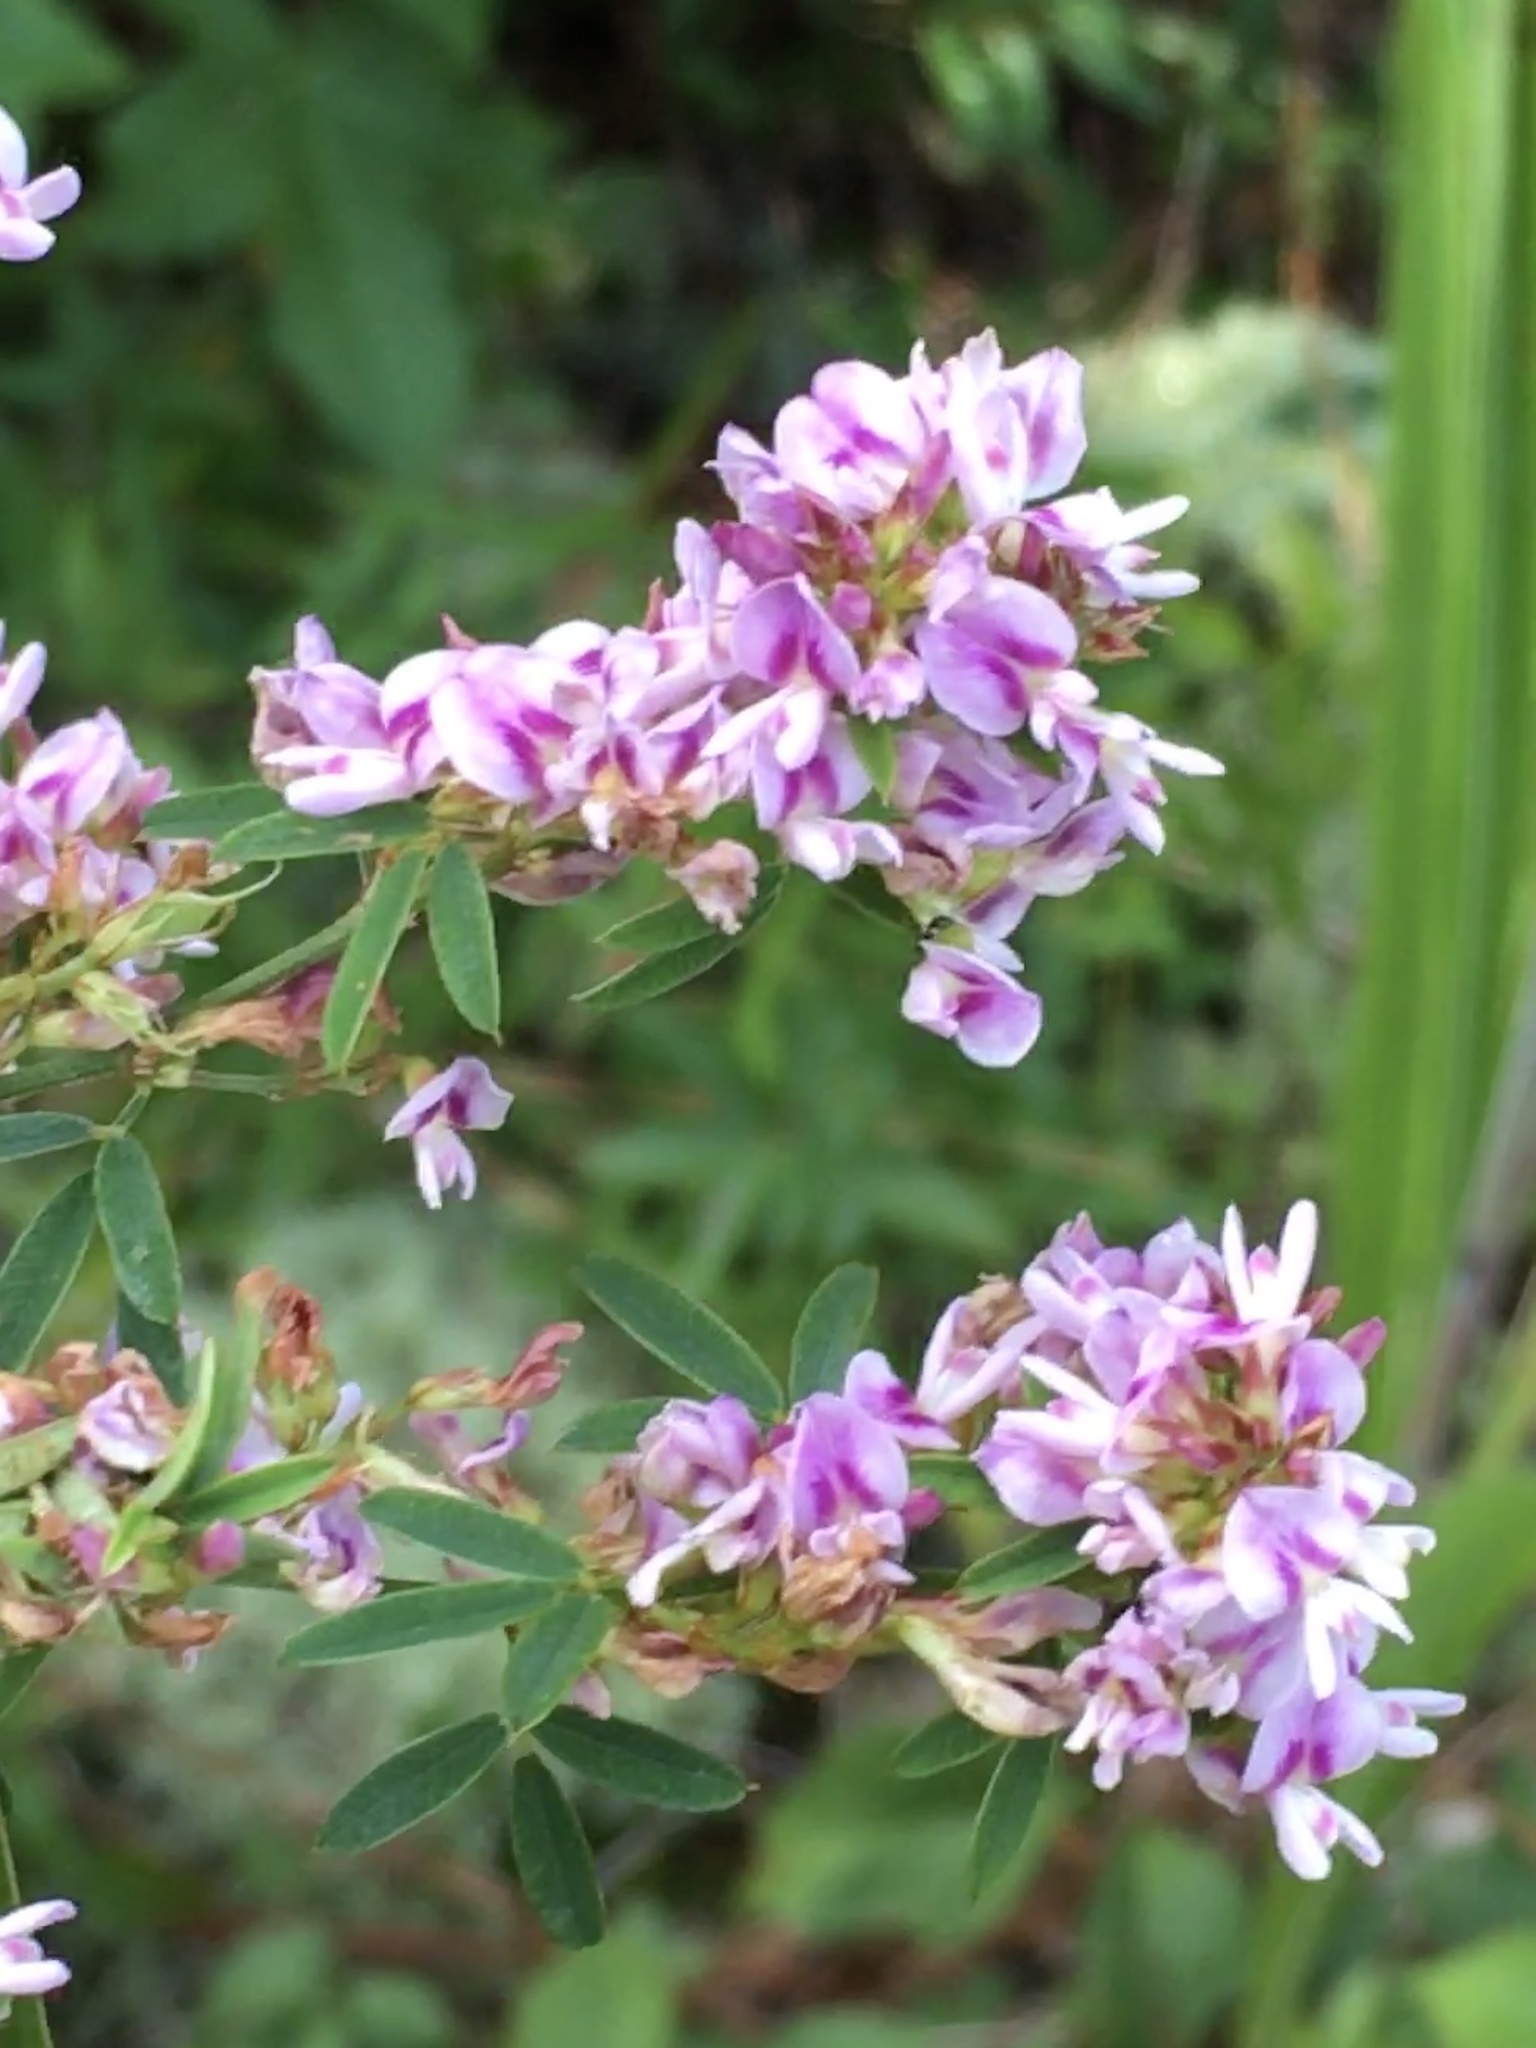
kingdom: Plantae
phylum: Tracheophyta
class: Magnoliopsida
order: Fabales
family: Fabaceae
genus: Lespedeza
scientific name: Lespedeza virginica
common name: Slender bush-clover
